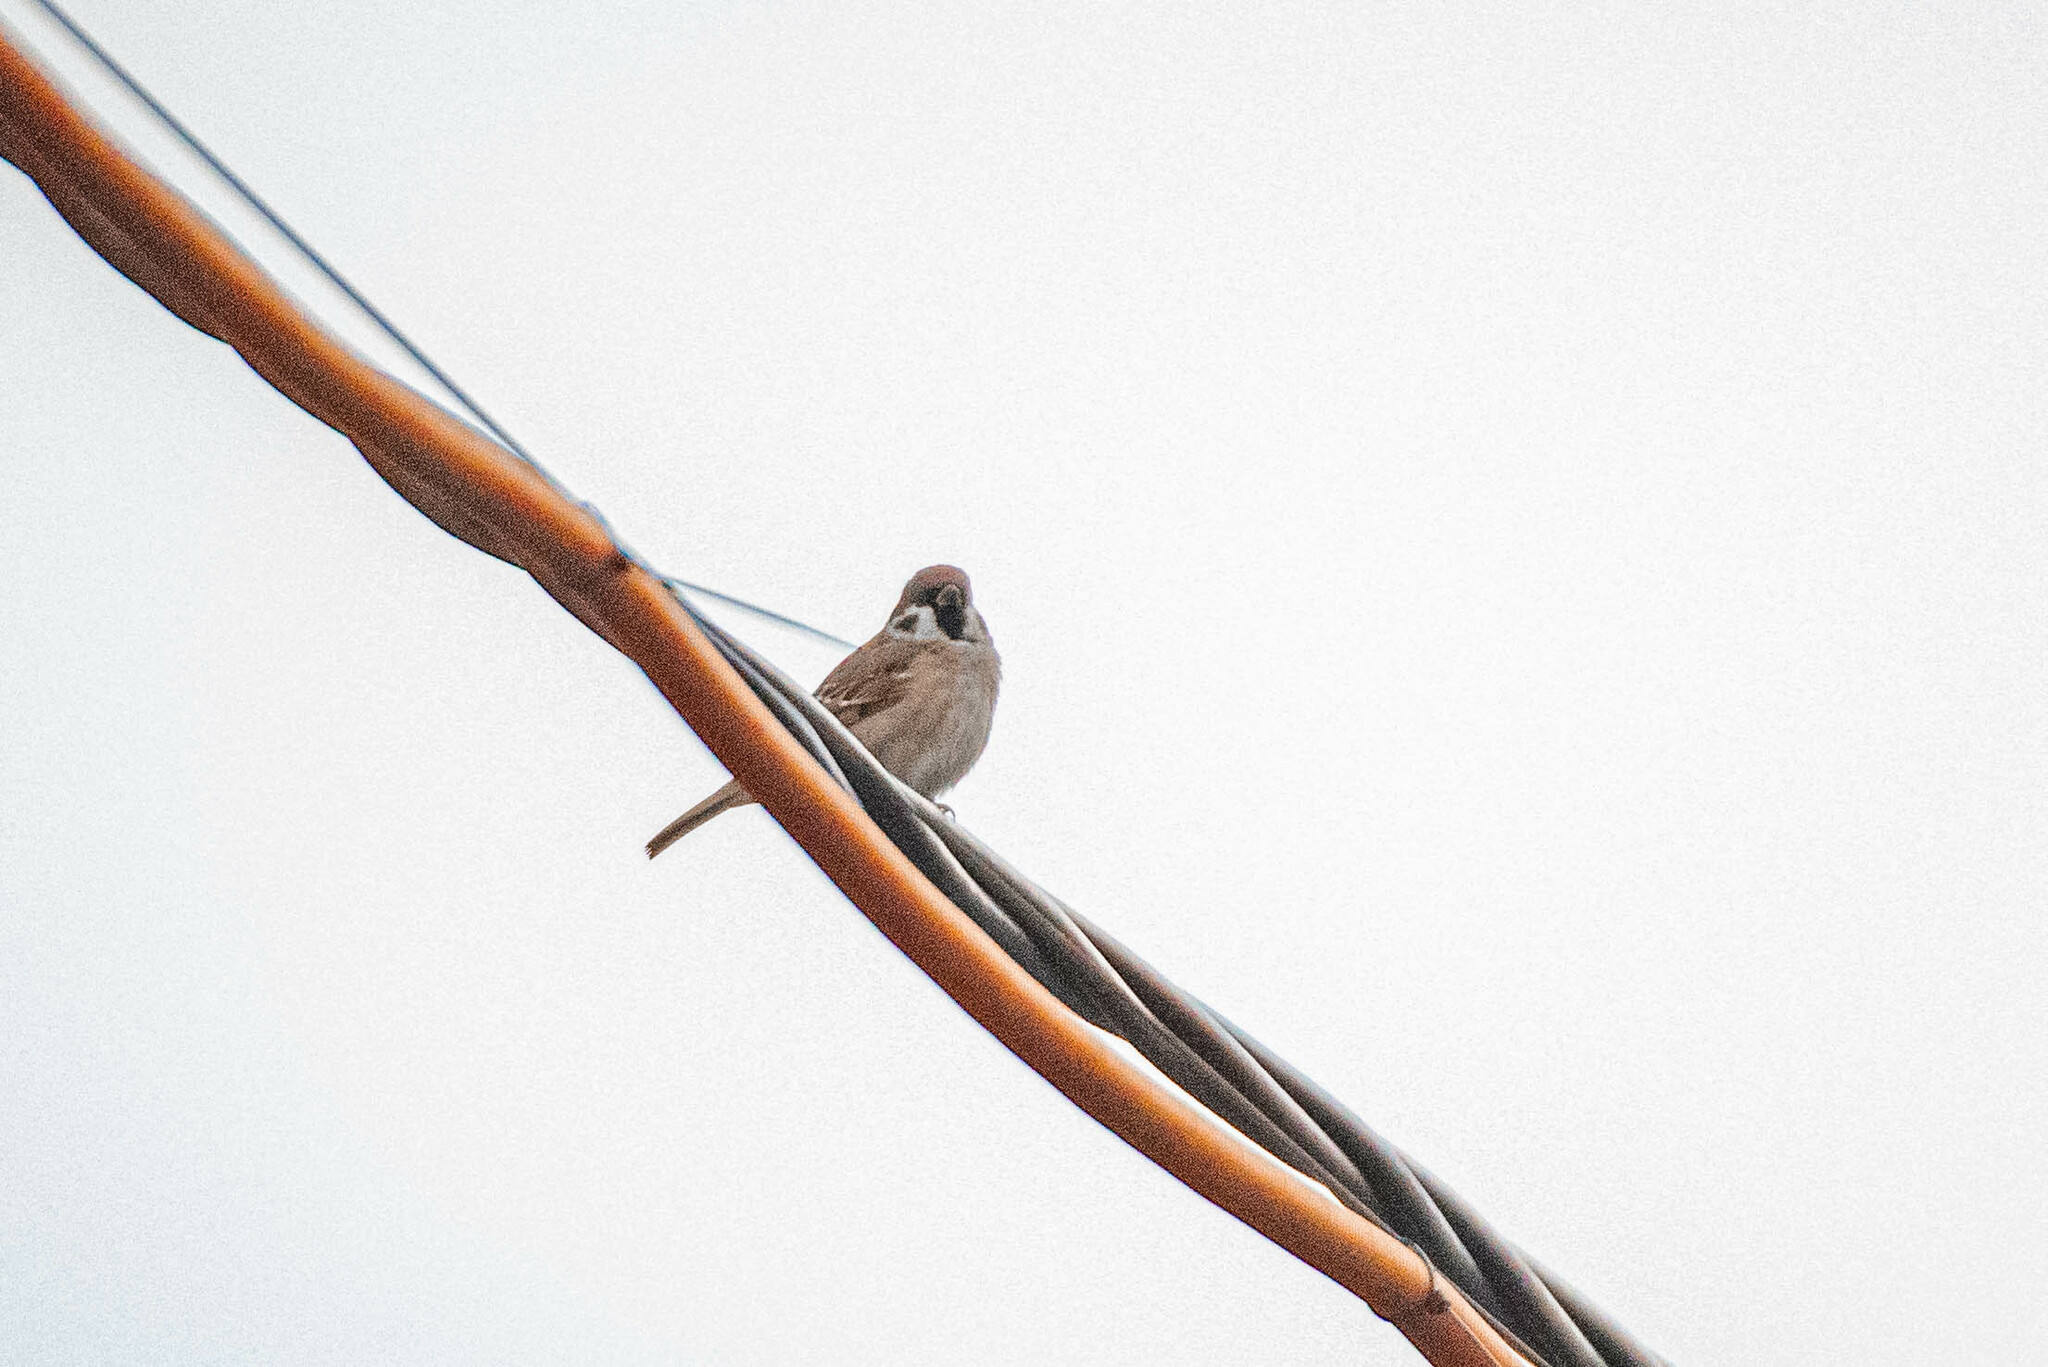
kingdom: Animalia
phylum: Chordata
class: Aves
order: Passeriformes
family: Passeridae
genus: Passer
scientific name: Passer montanus
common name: Eurasian tree sparrow
